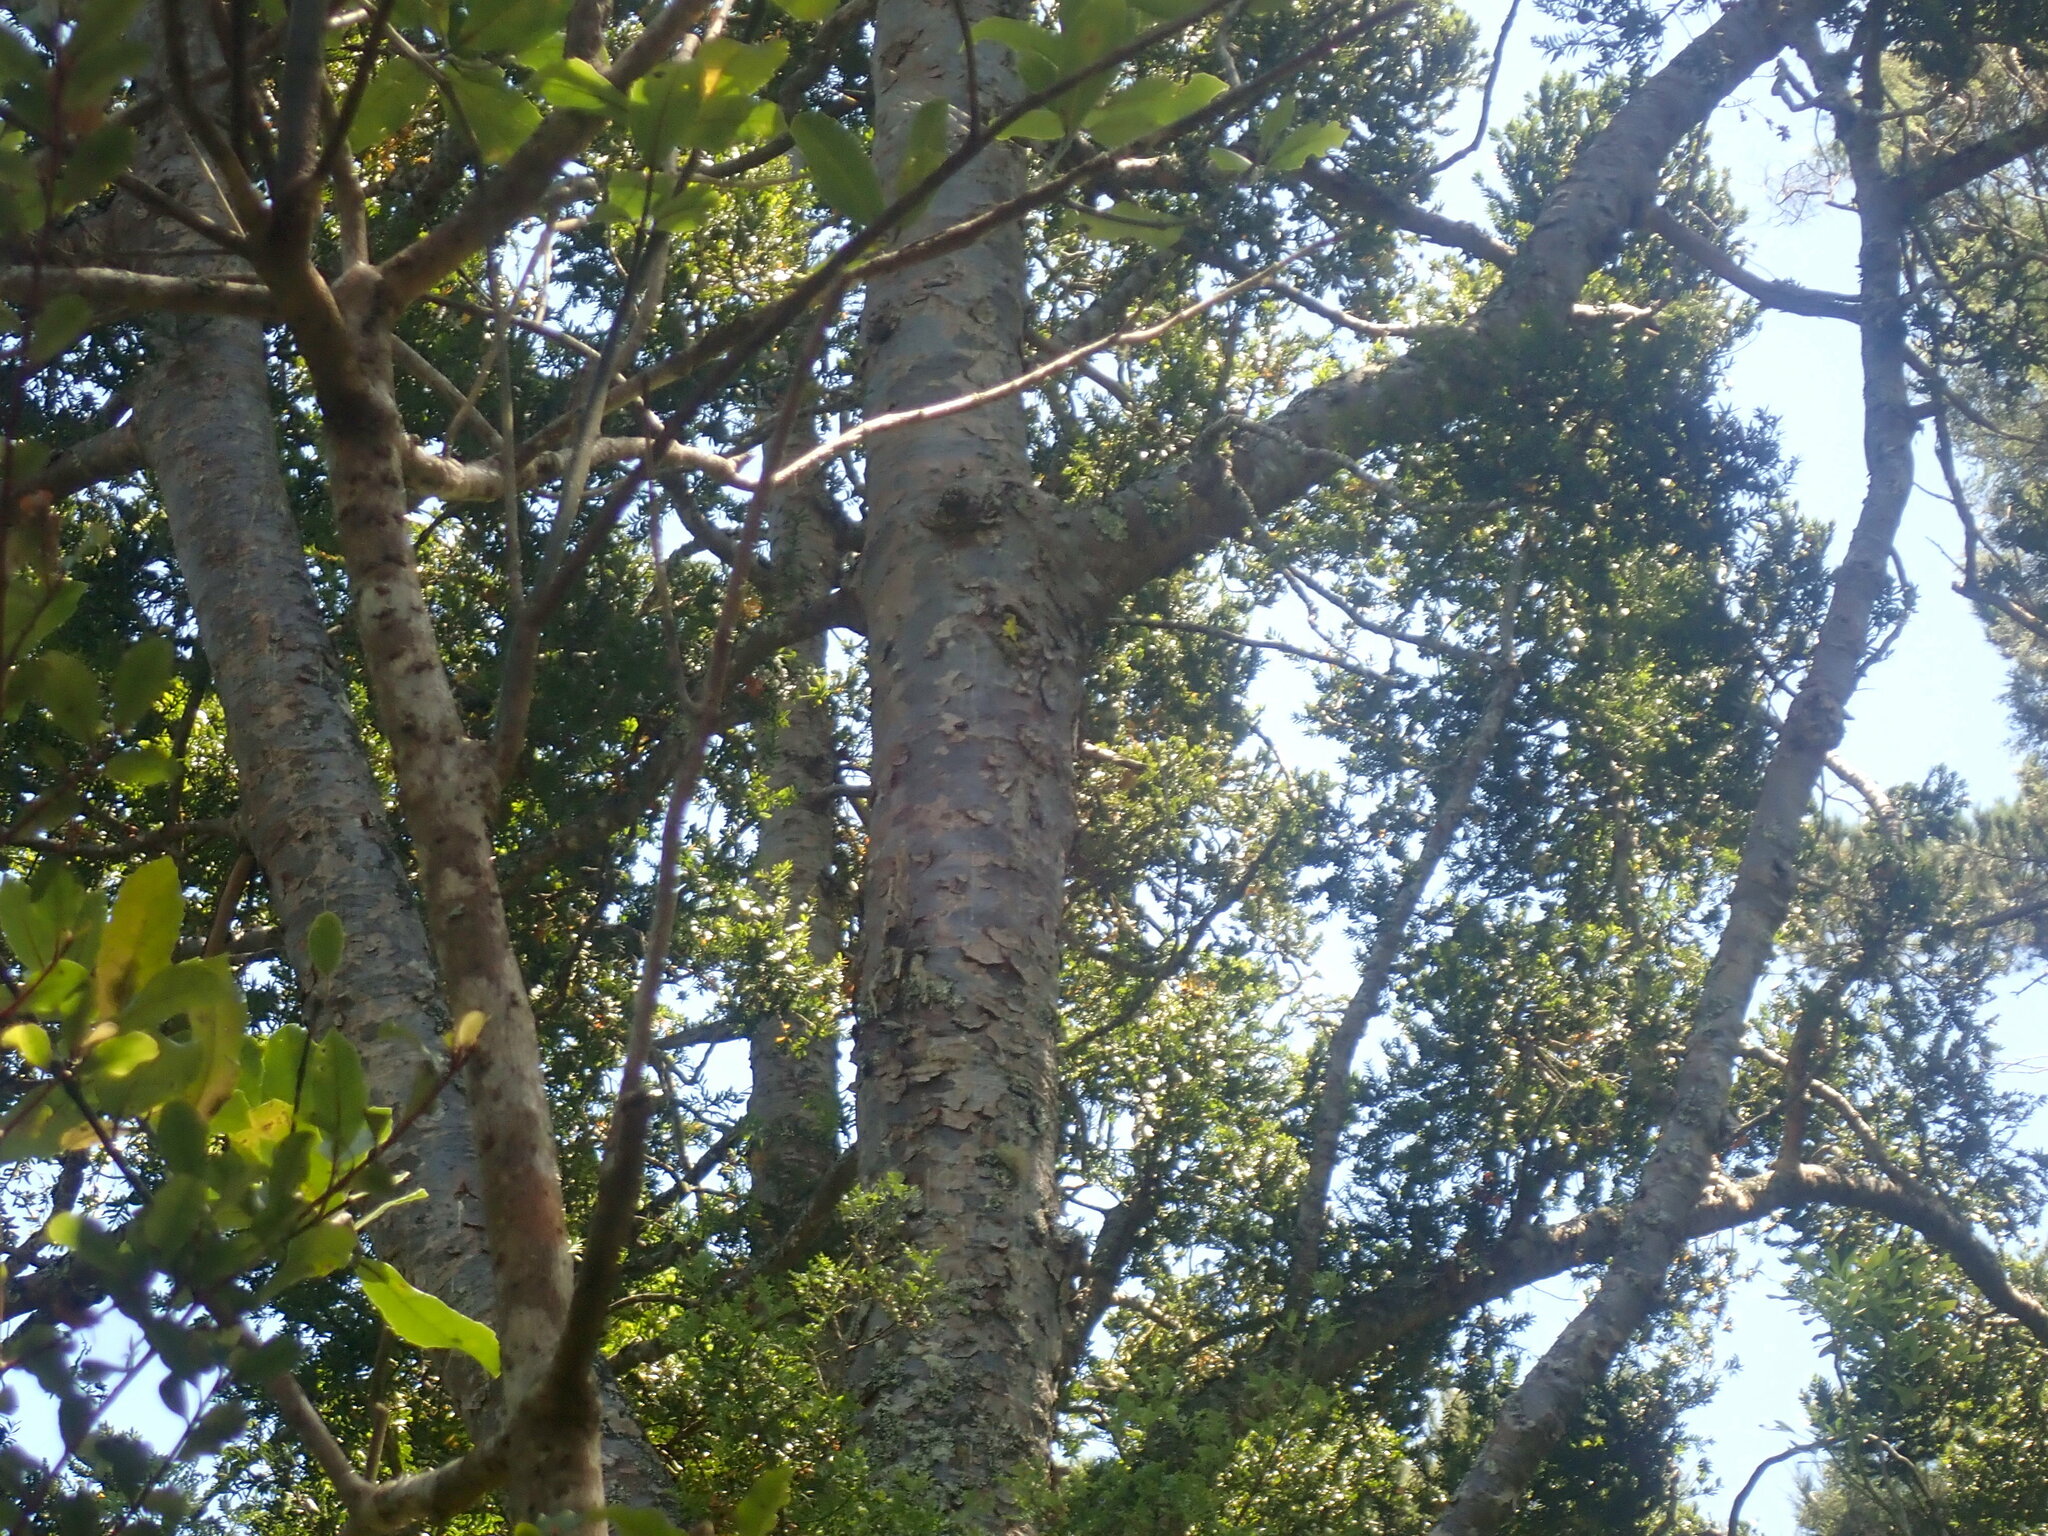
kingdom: Plantae
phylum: Tracheophyta
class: Pinopsida
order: Pinales
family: Araucariaceae
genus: Agathis
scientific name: Agathis australis
